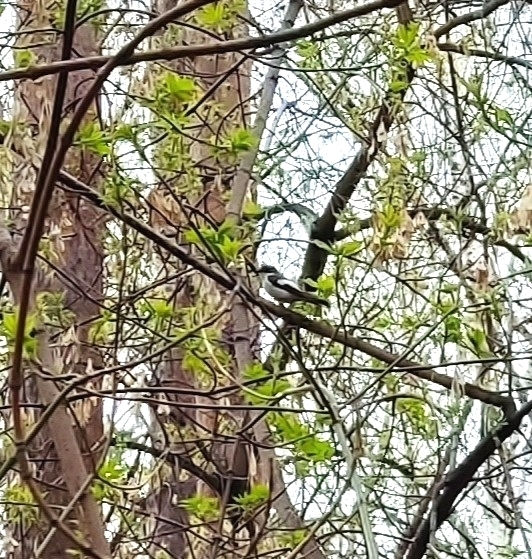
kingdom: Animalia
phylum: Chordata
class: Aves
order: Passeriformes
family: Muscicapidae
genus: Ficedula
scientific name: Ficedula hypoleuca
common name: European pied flycatcher
